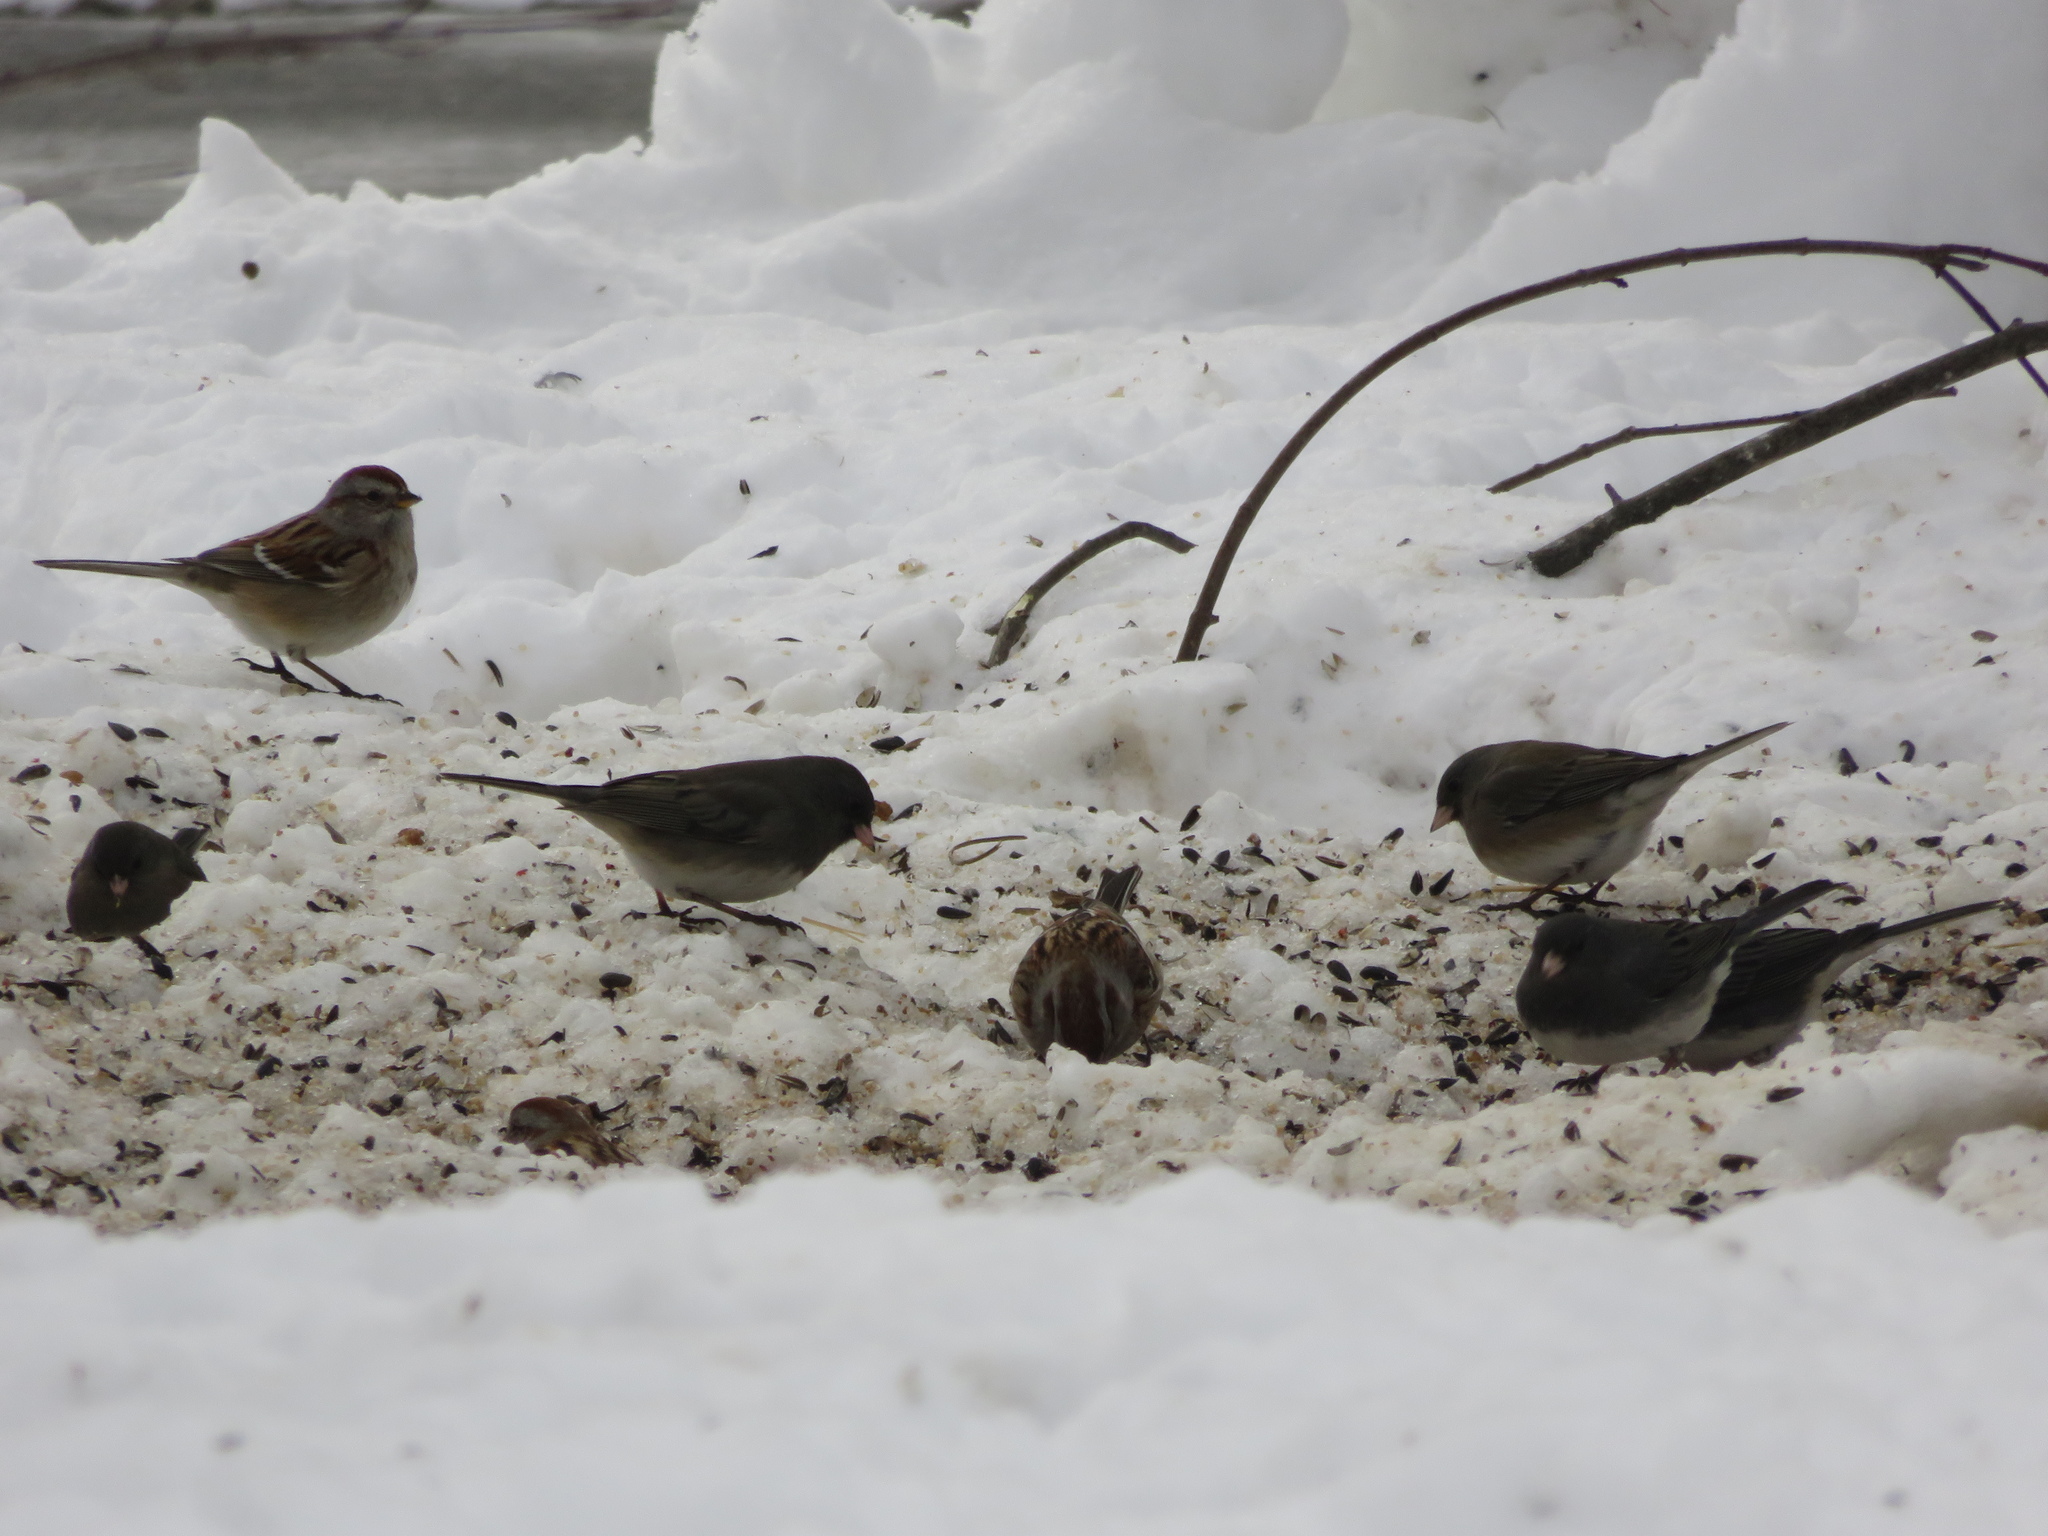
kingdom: Animalia
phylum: Chordata
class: Aves
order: Passeriformes
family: Passerellidae
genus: Spizelloides
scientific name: Spizelloides arborea
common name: American tree sparrow
